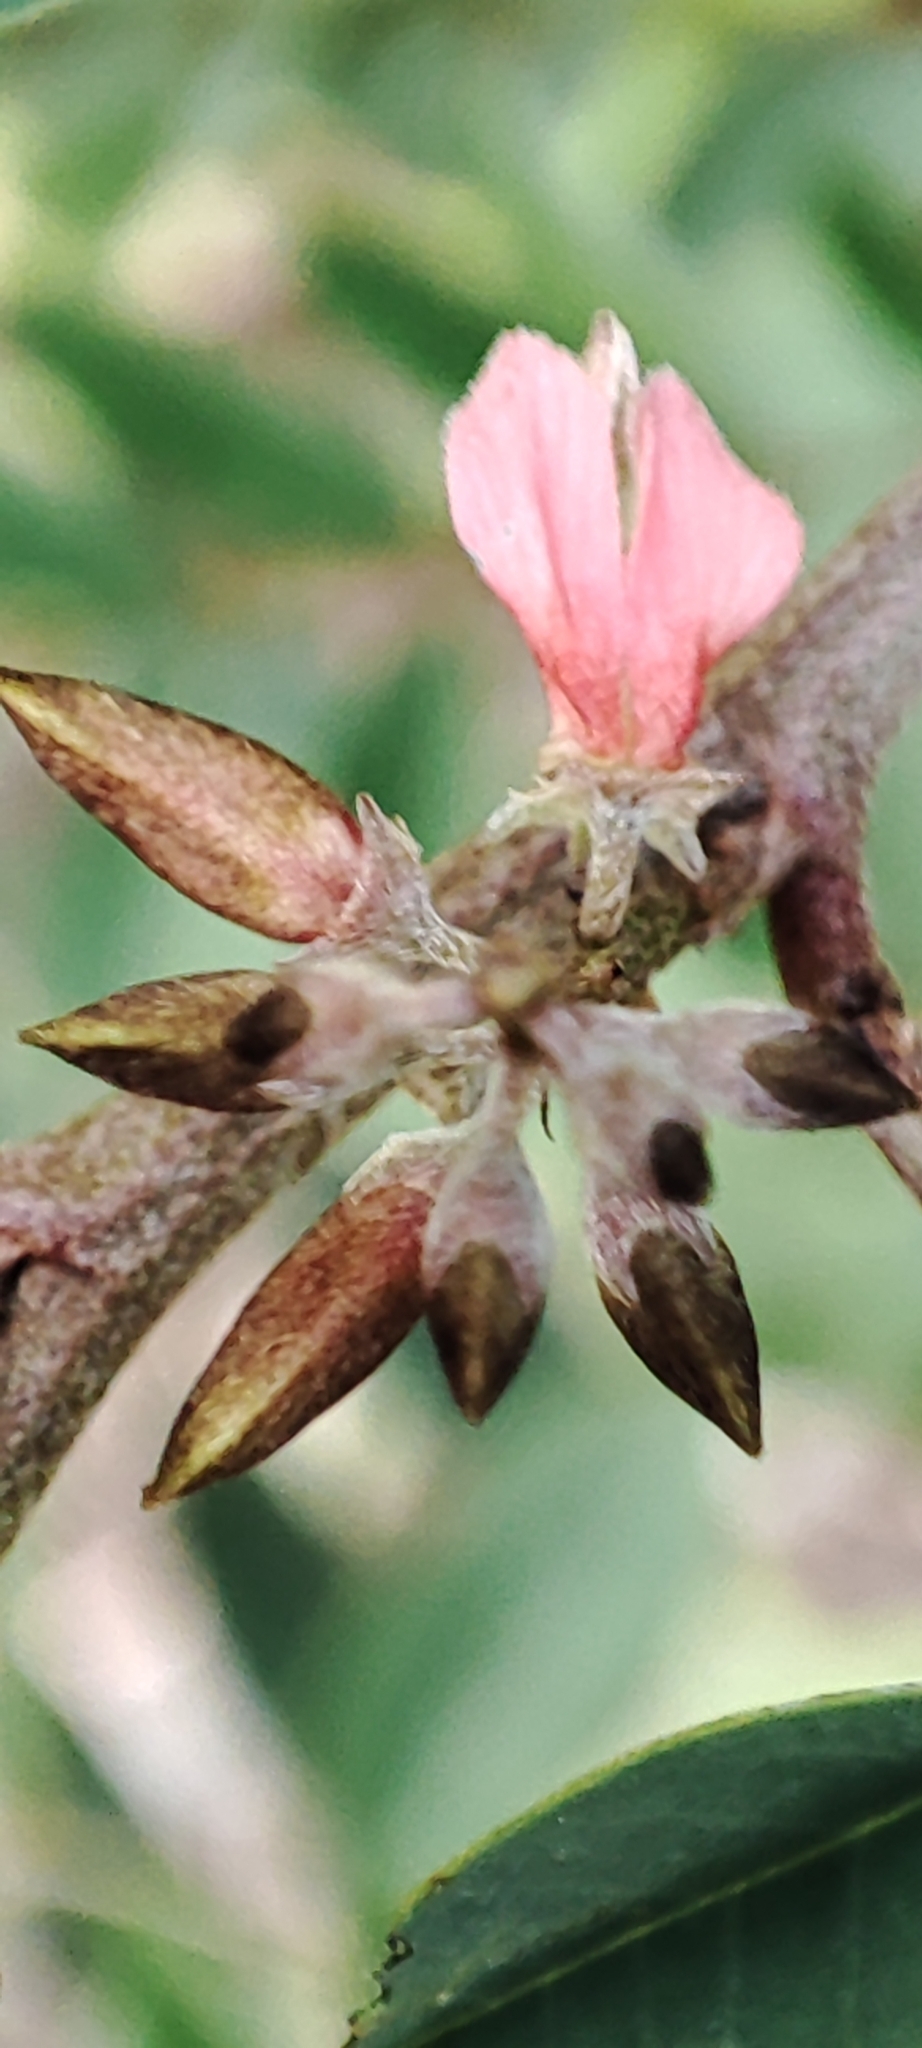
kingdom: Plantae
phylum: Tracheophyta
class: Magnoliopsida
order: Fabales
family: Fabaceae
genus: Indigofera
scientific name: Indigofera suffruticosa
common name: Anil de pasto
